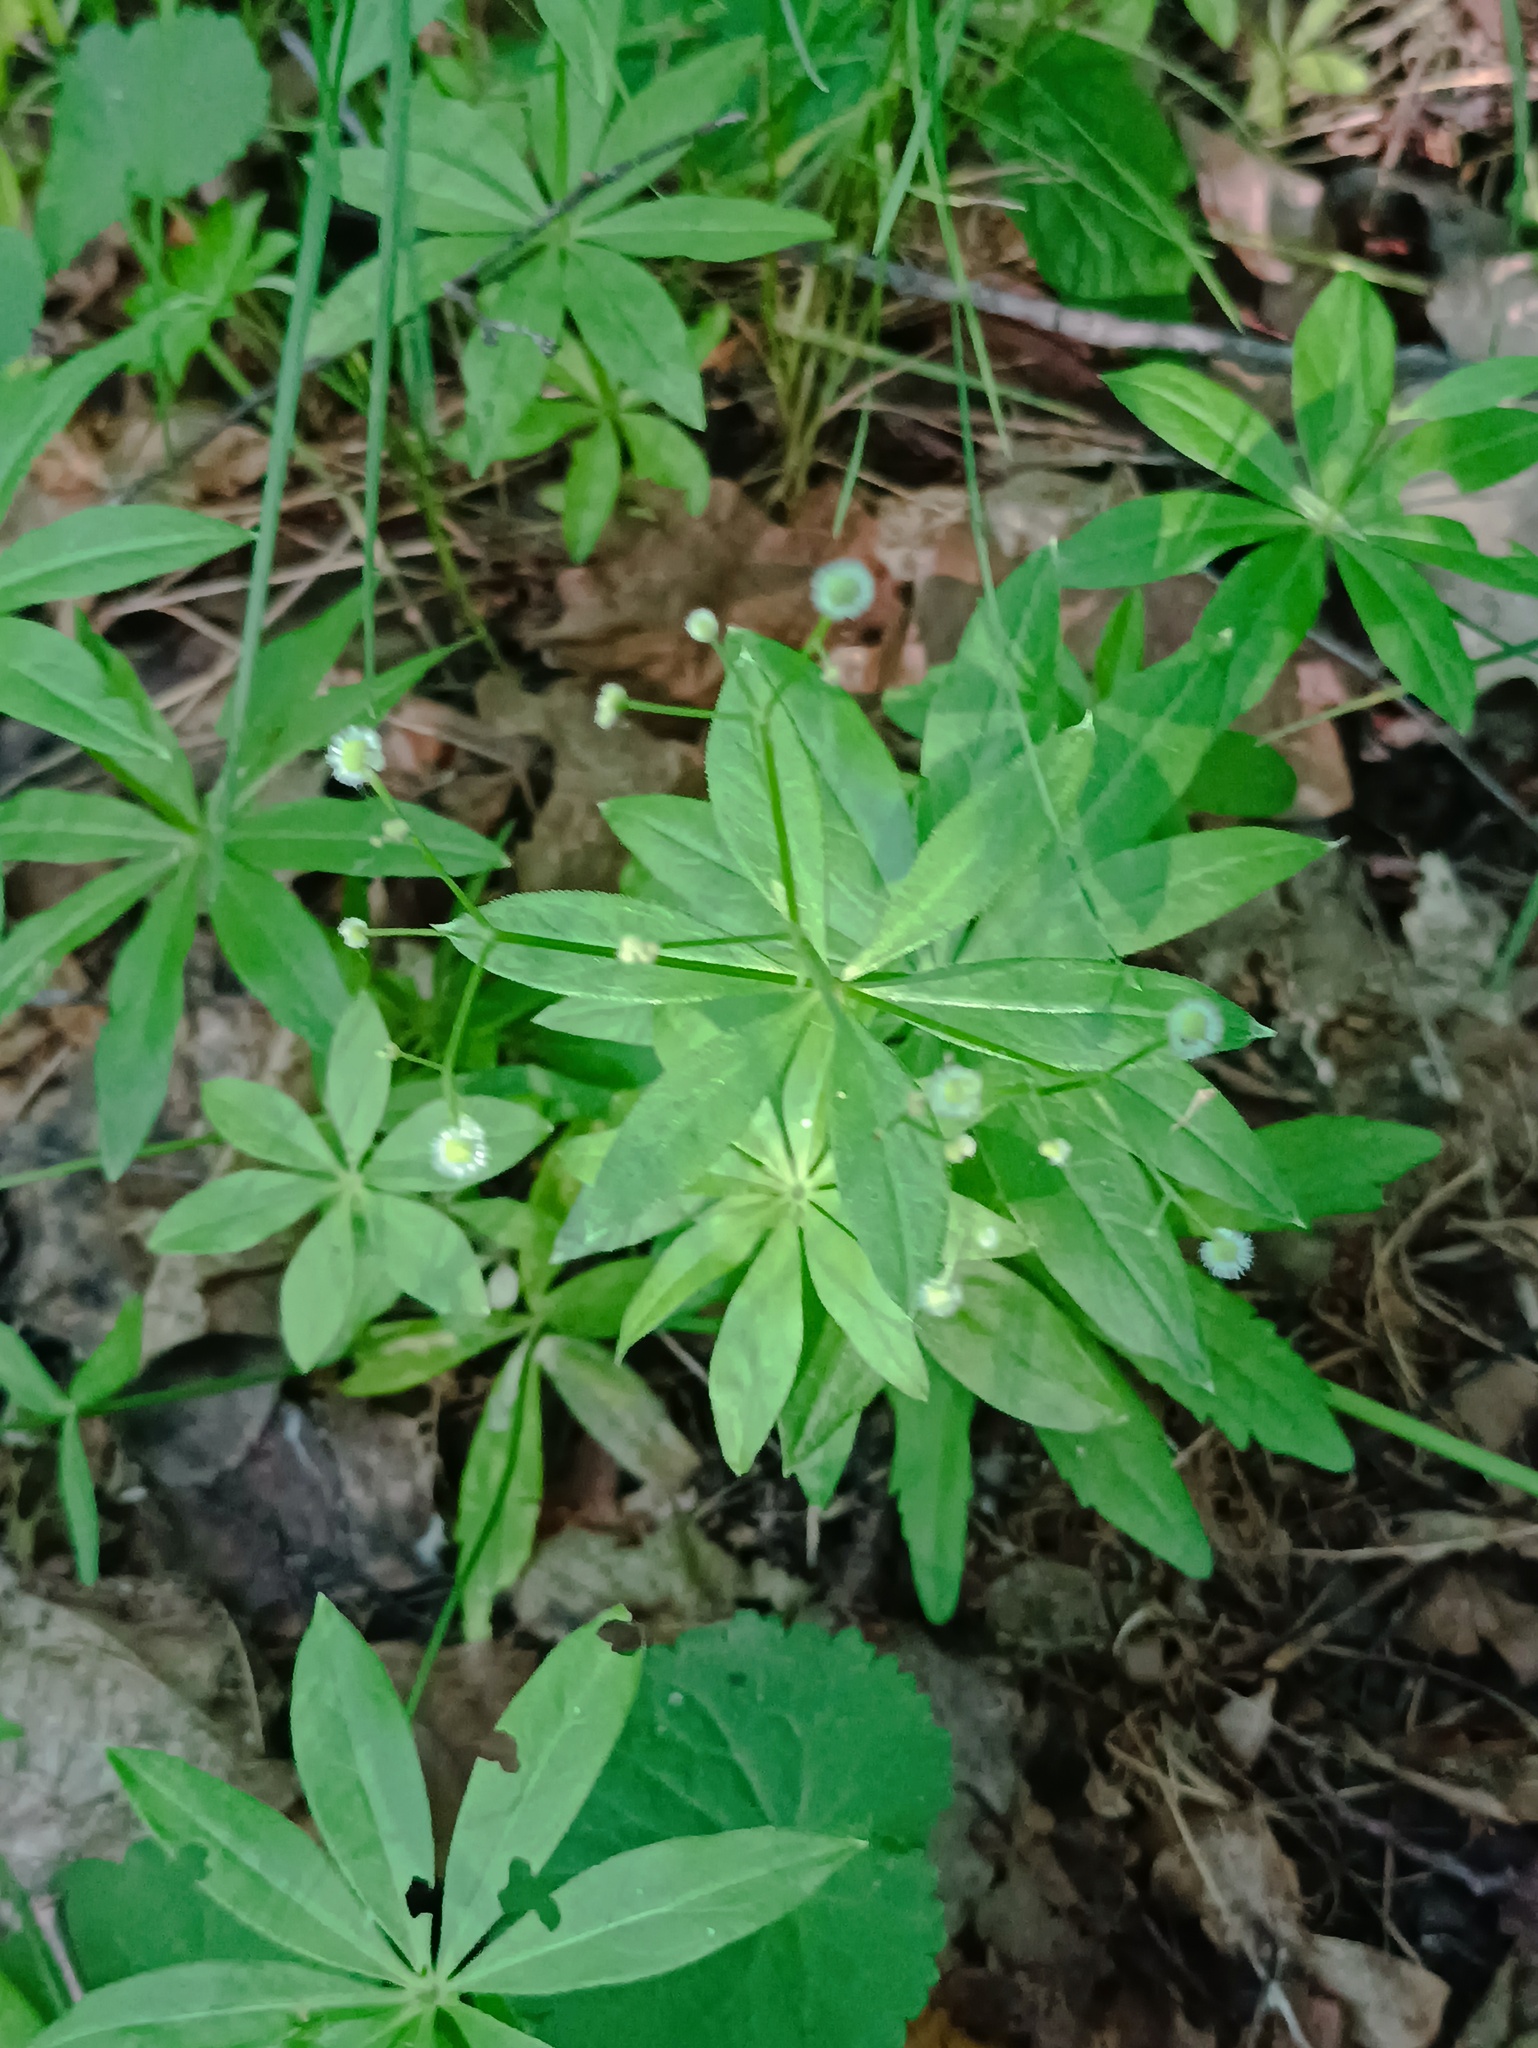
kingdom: Plantae
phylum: Tracheophyta
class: Magnoliopsida
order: Gentianales
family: Rubiaceae
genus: Galium
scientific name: Galium odoratum
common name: Sweet woodruff
